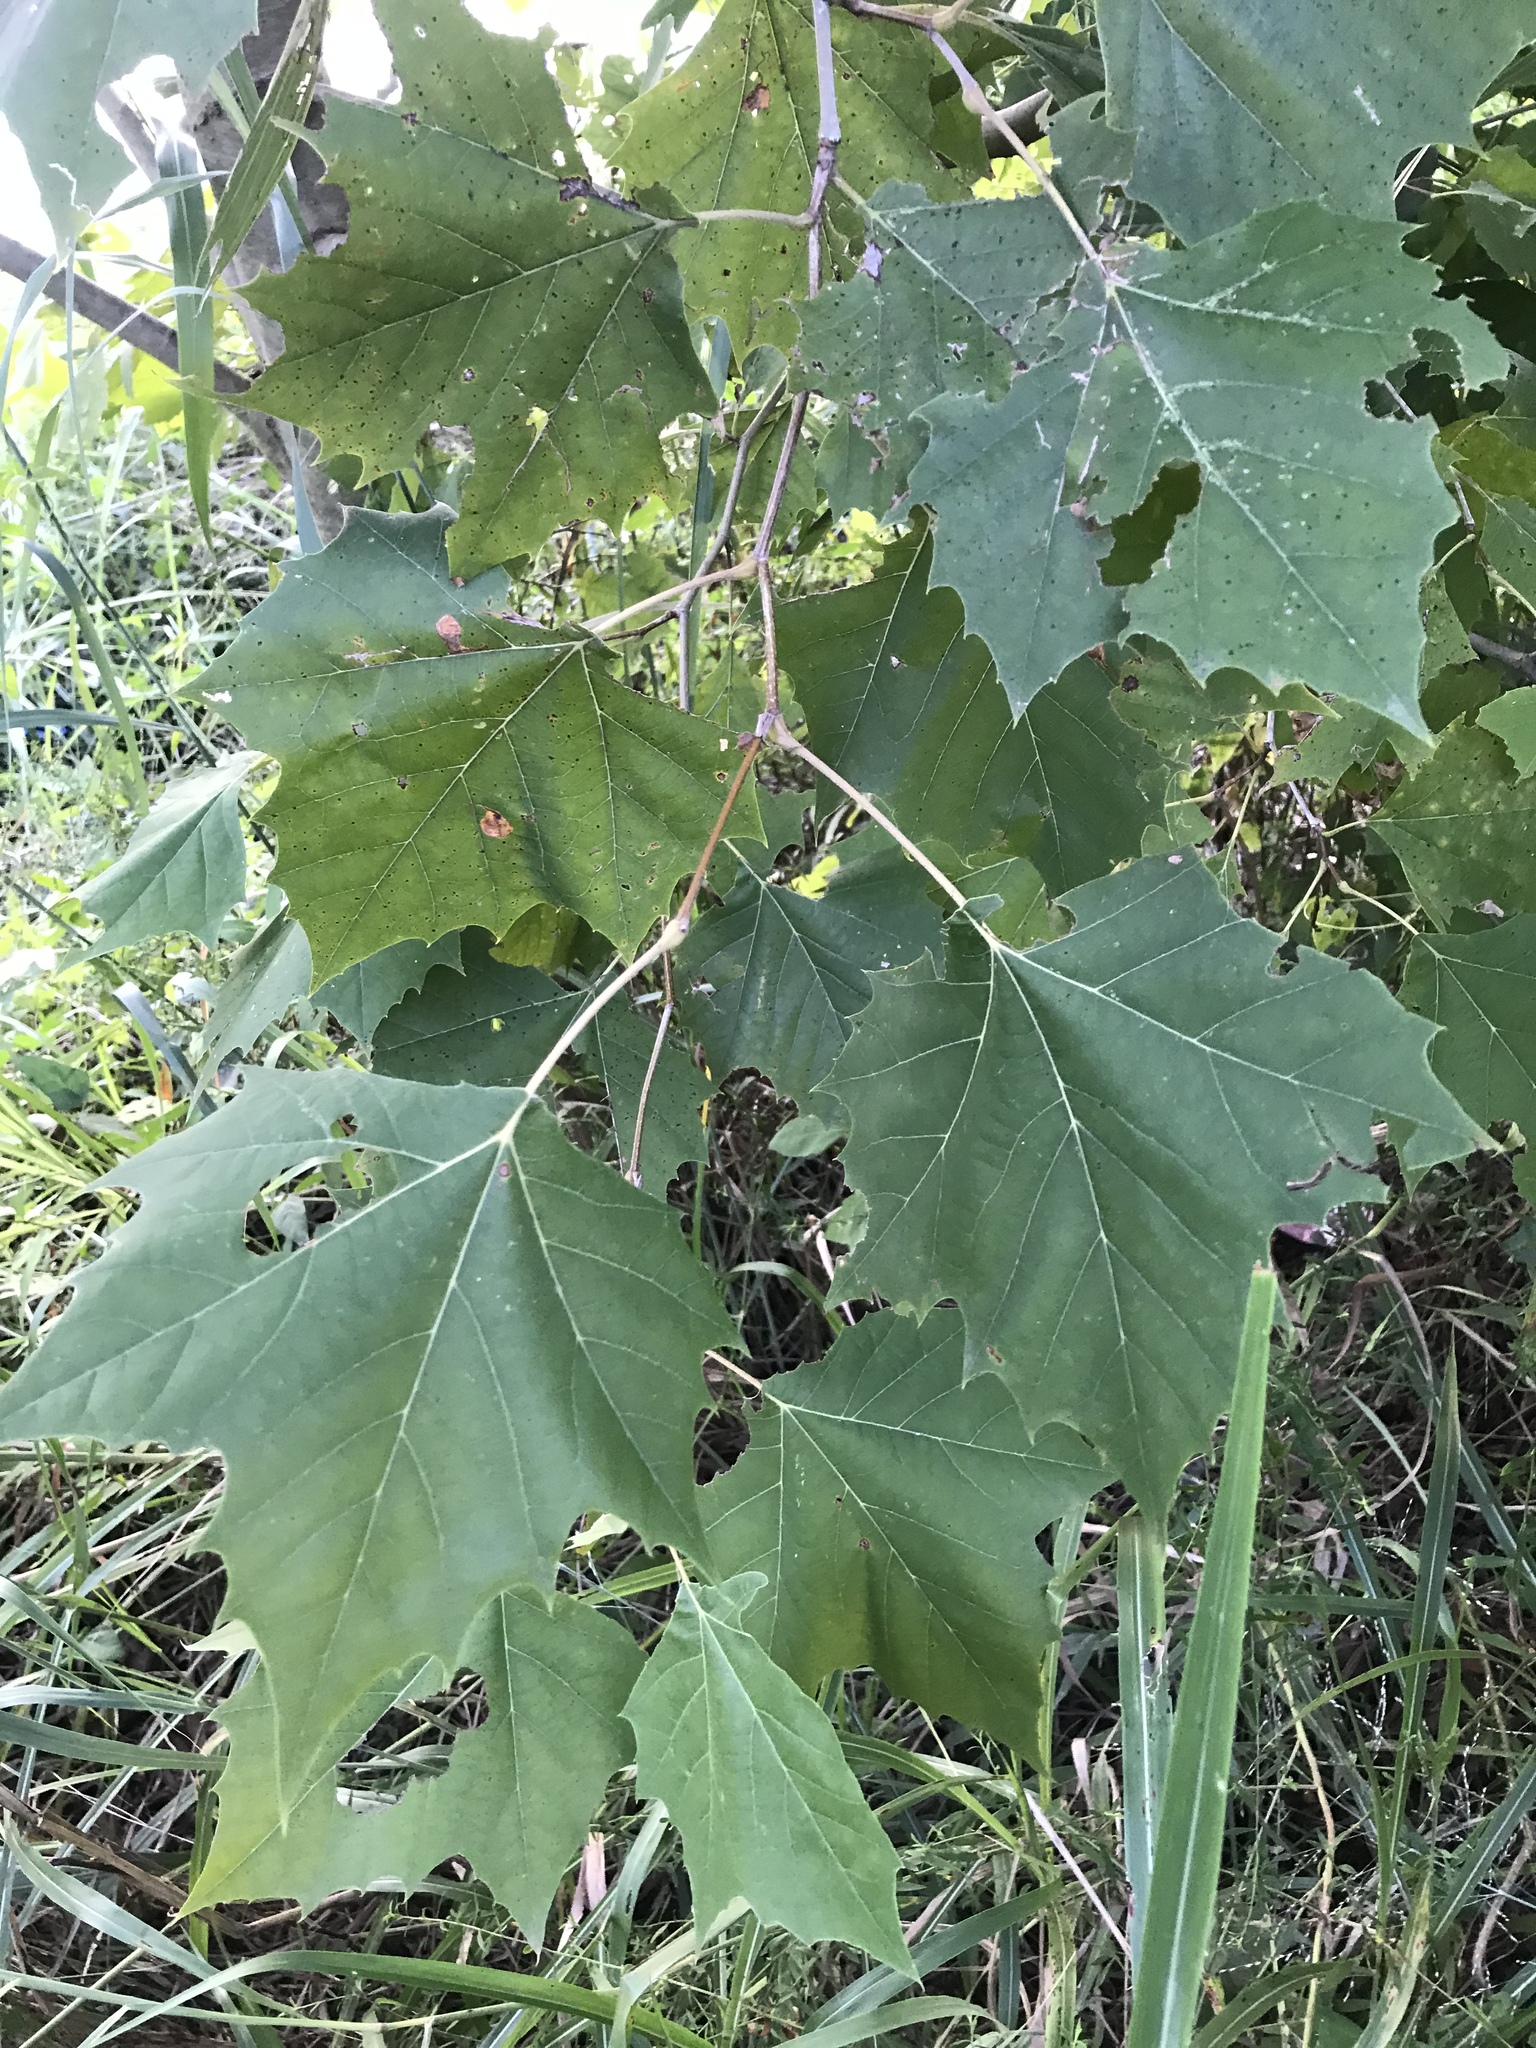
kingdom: Plantae
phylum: Tracheophyta
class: Magnoliopsida
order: Proteales
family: Platanaceae
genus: Platanus
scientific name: Platanus occidentalis
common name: American sycamore
